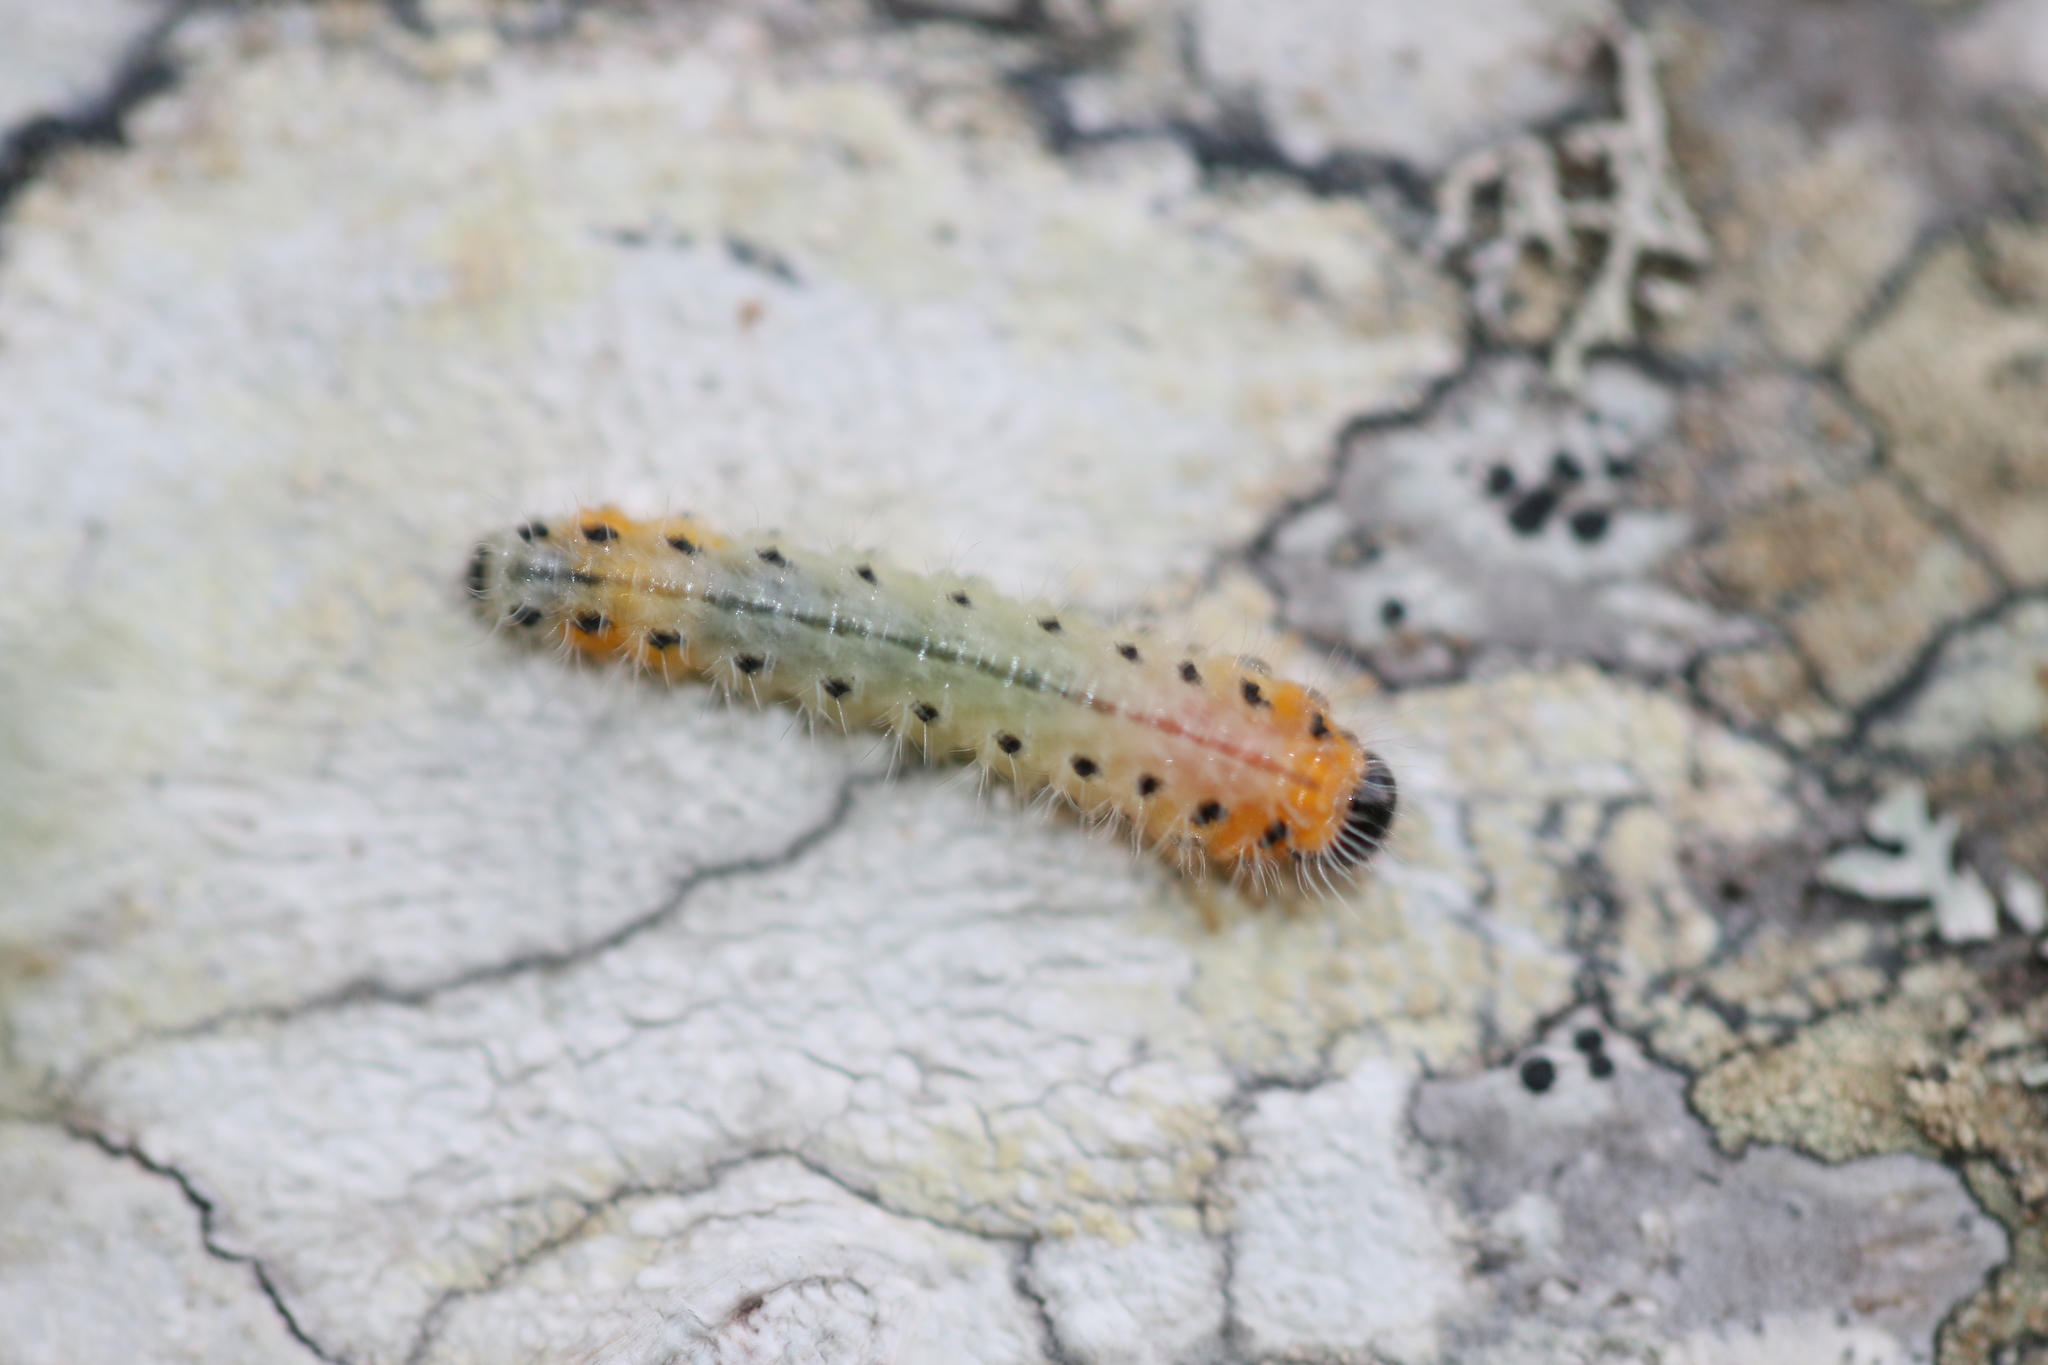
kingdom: Animalia
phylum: Arthropoda
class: Insecta
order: Hymenoptera
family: Tenthredinidae
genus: Cladius
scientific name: Cladius grandis
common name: Common sawfly
